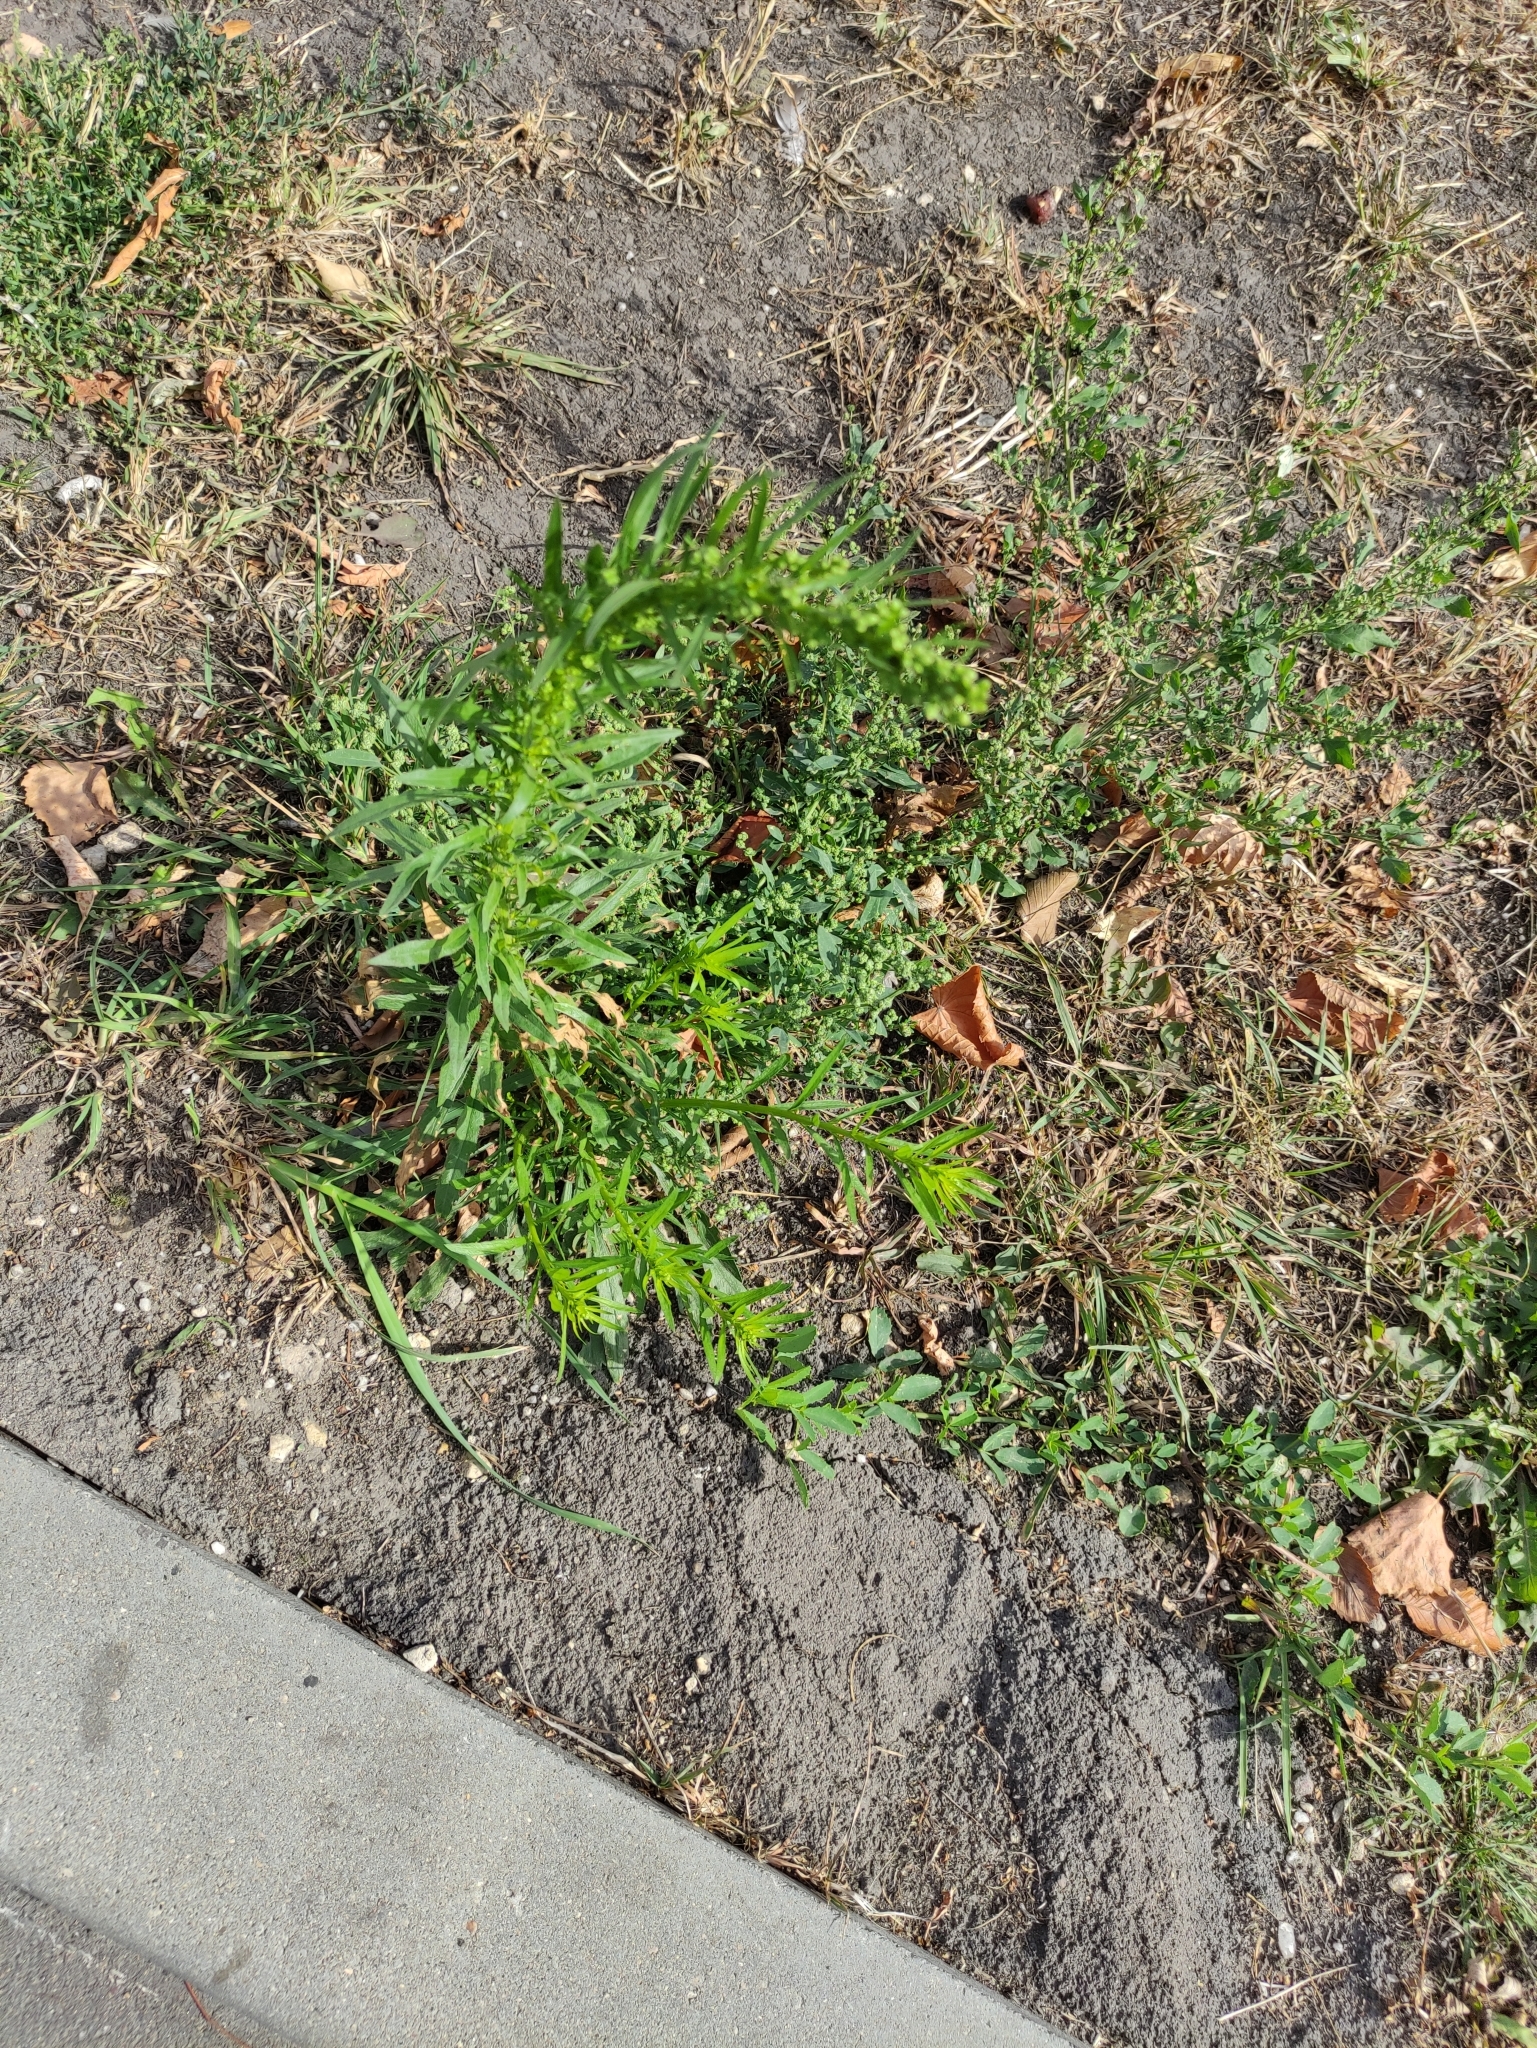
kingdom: Plantae
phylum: Tracheophyta
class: Magnoliopsida
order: Asterales
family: Asteraceae
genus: Erigeron
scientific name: Erigeron canadensis
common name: Canadian fleabane
